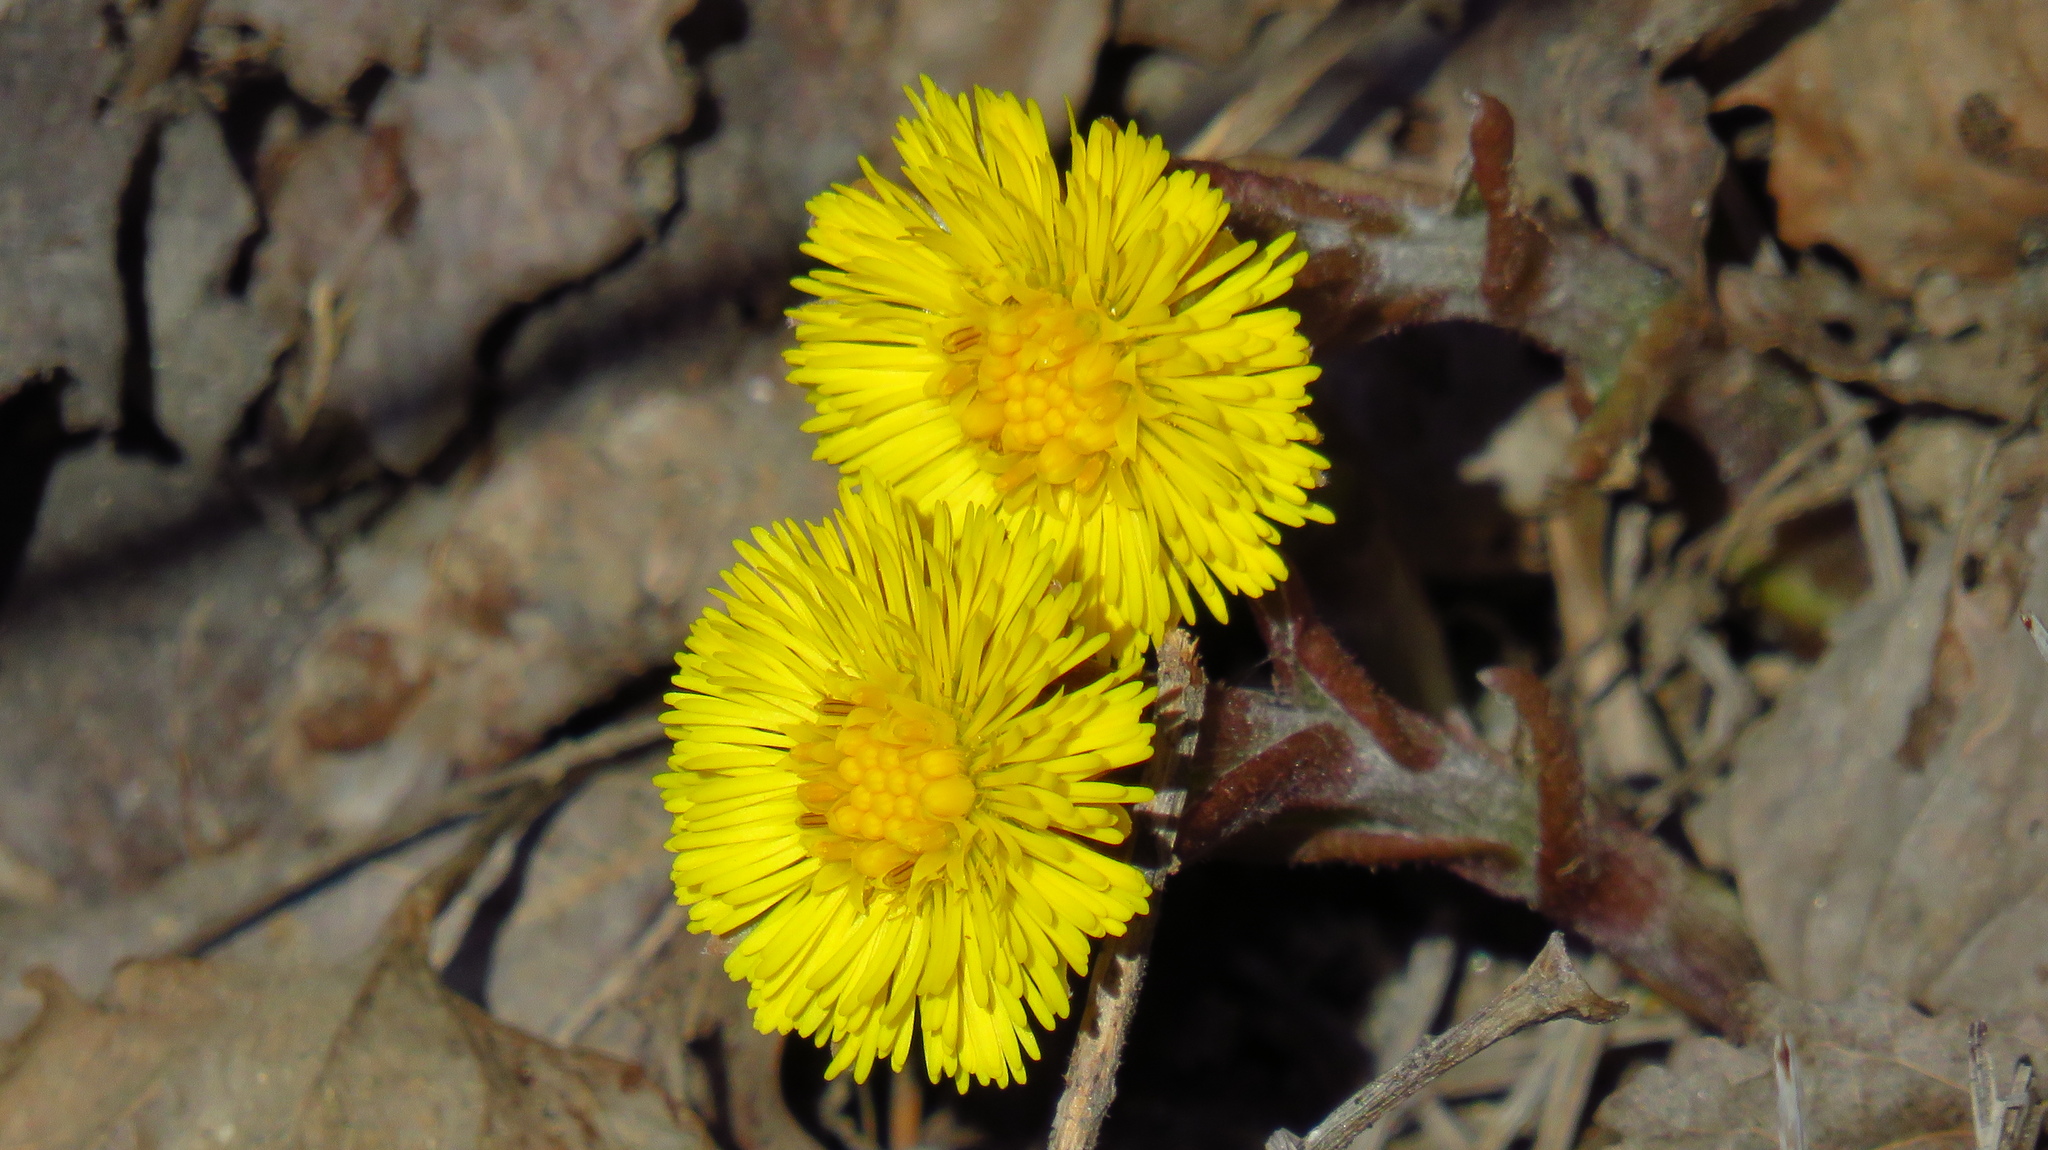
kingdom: Plantae
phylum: Tracheophyta
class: Magnoliopsida
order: Asterales
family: Asteraceae
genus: Tussilago
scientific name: Tussilago farfara
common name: Coltsfoot
